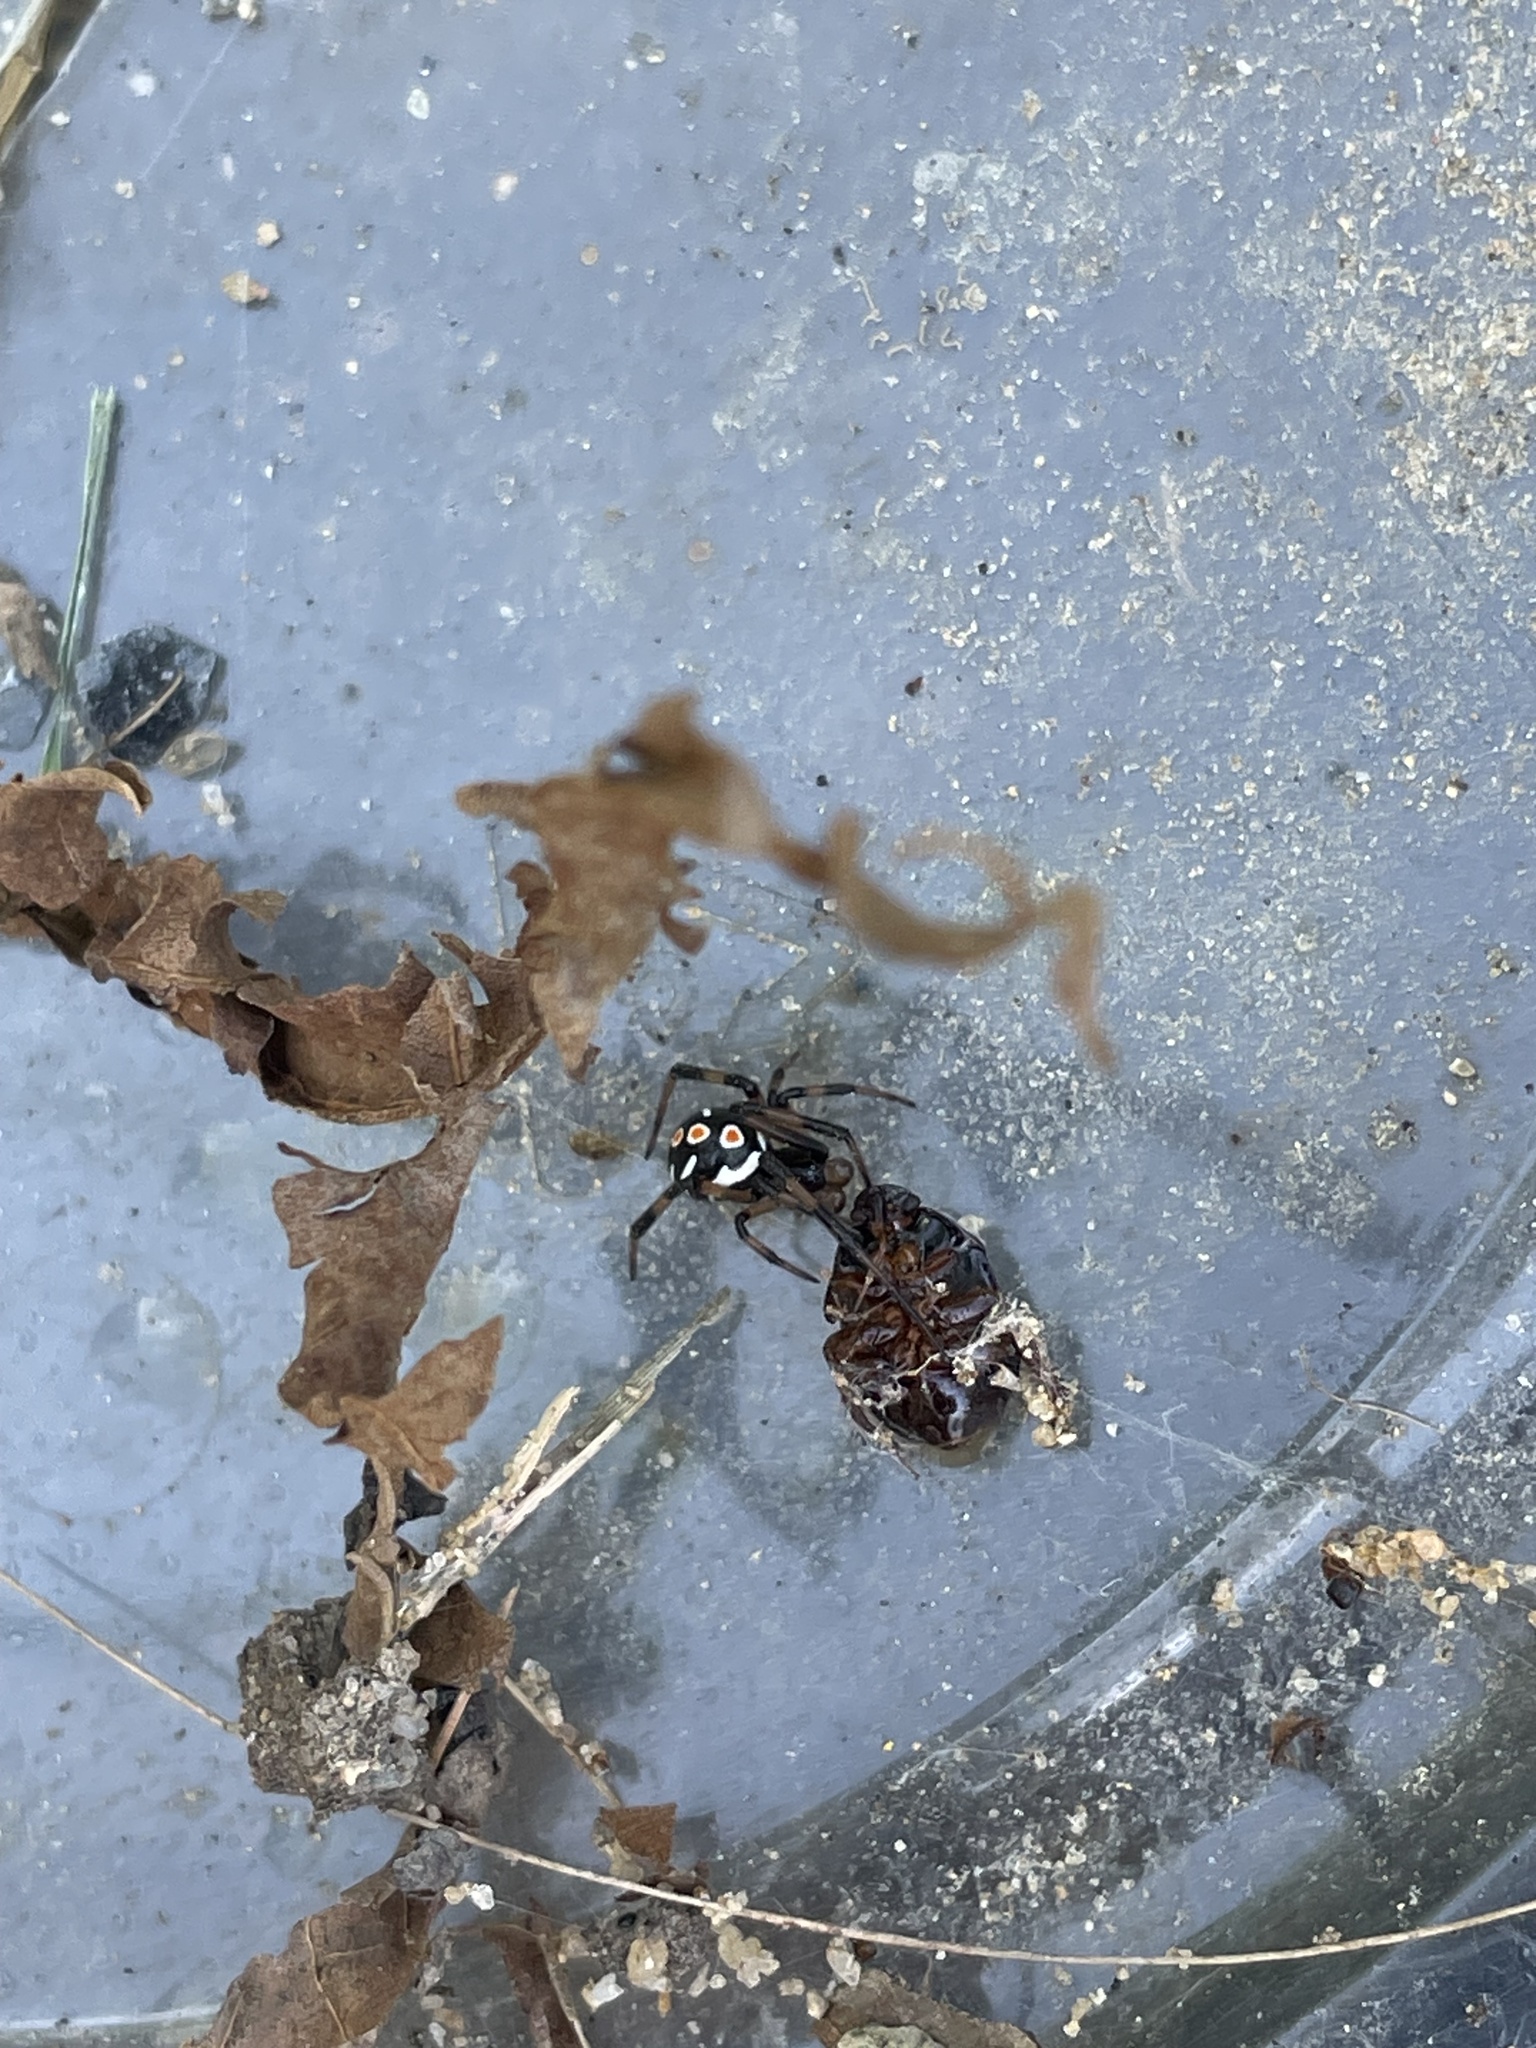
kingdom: Animalia
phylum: Arthropoda
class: Arachnida
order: Araneae
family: Theridiidae
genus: Latrodectus
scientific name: Latrodectus mactans
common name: Cobweb spiders
